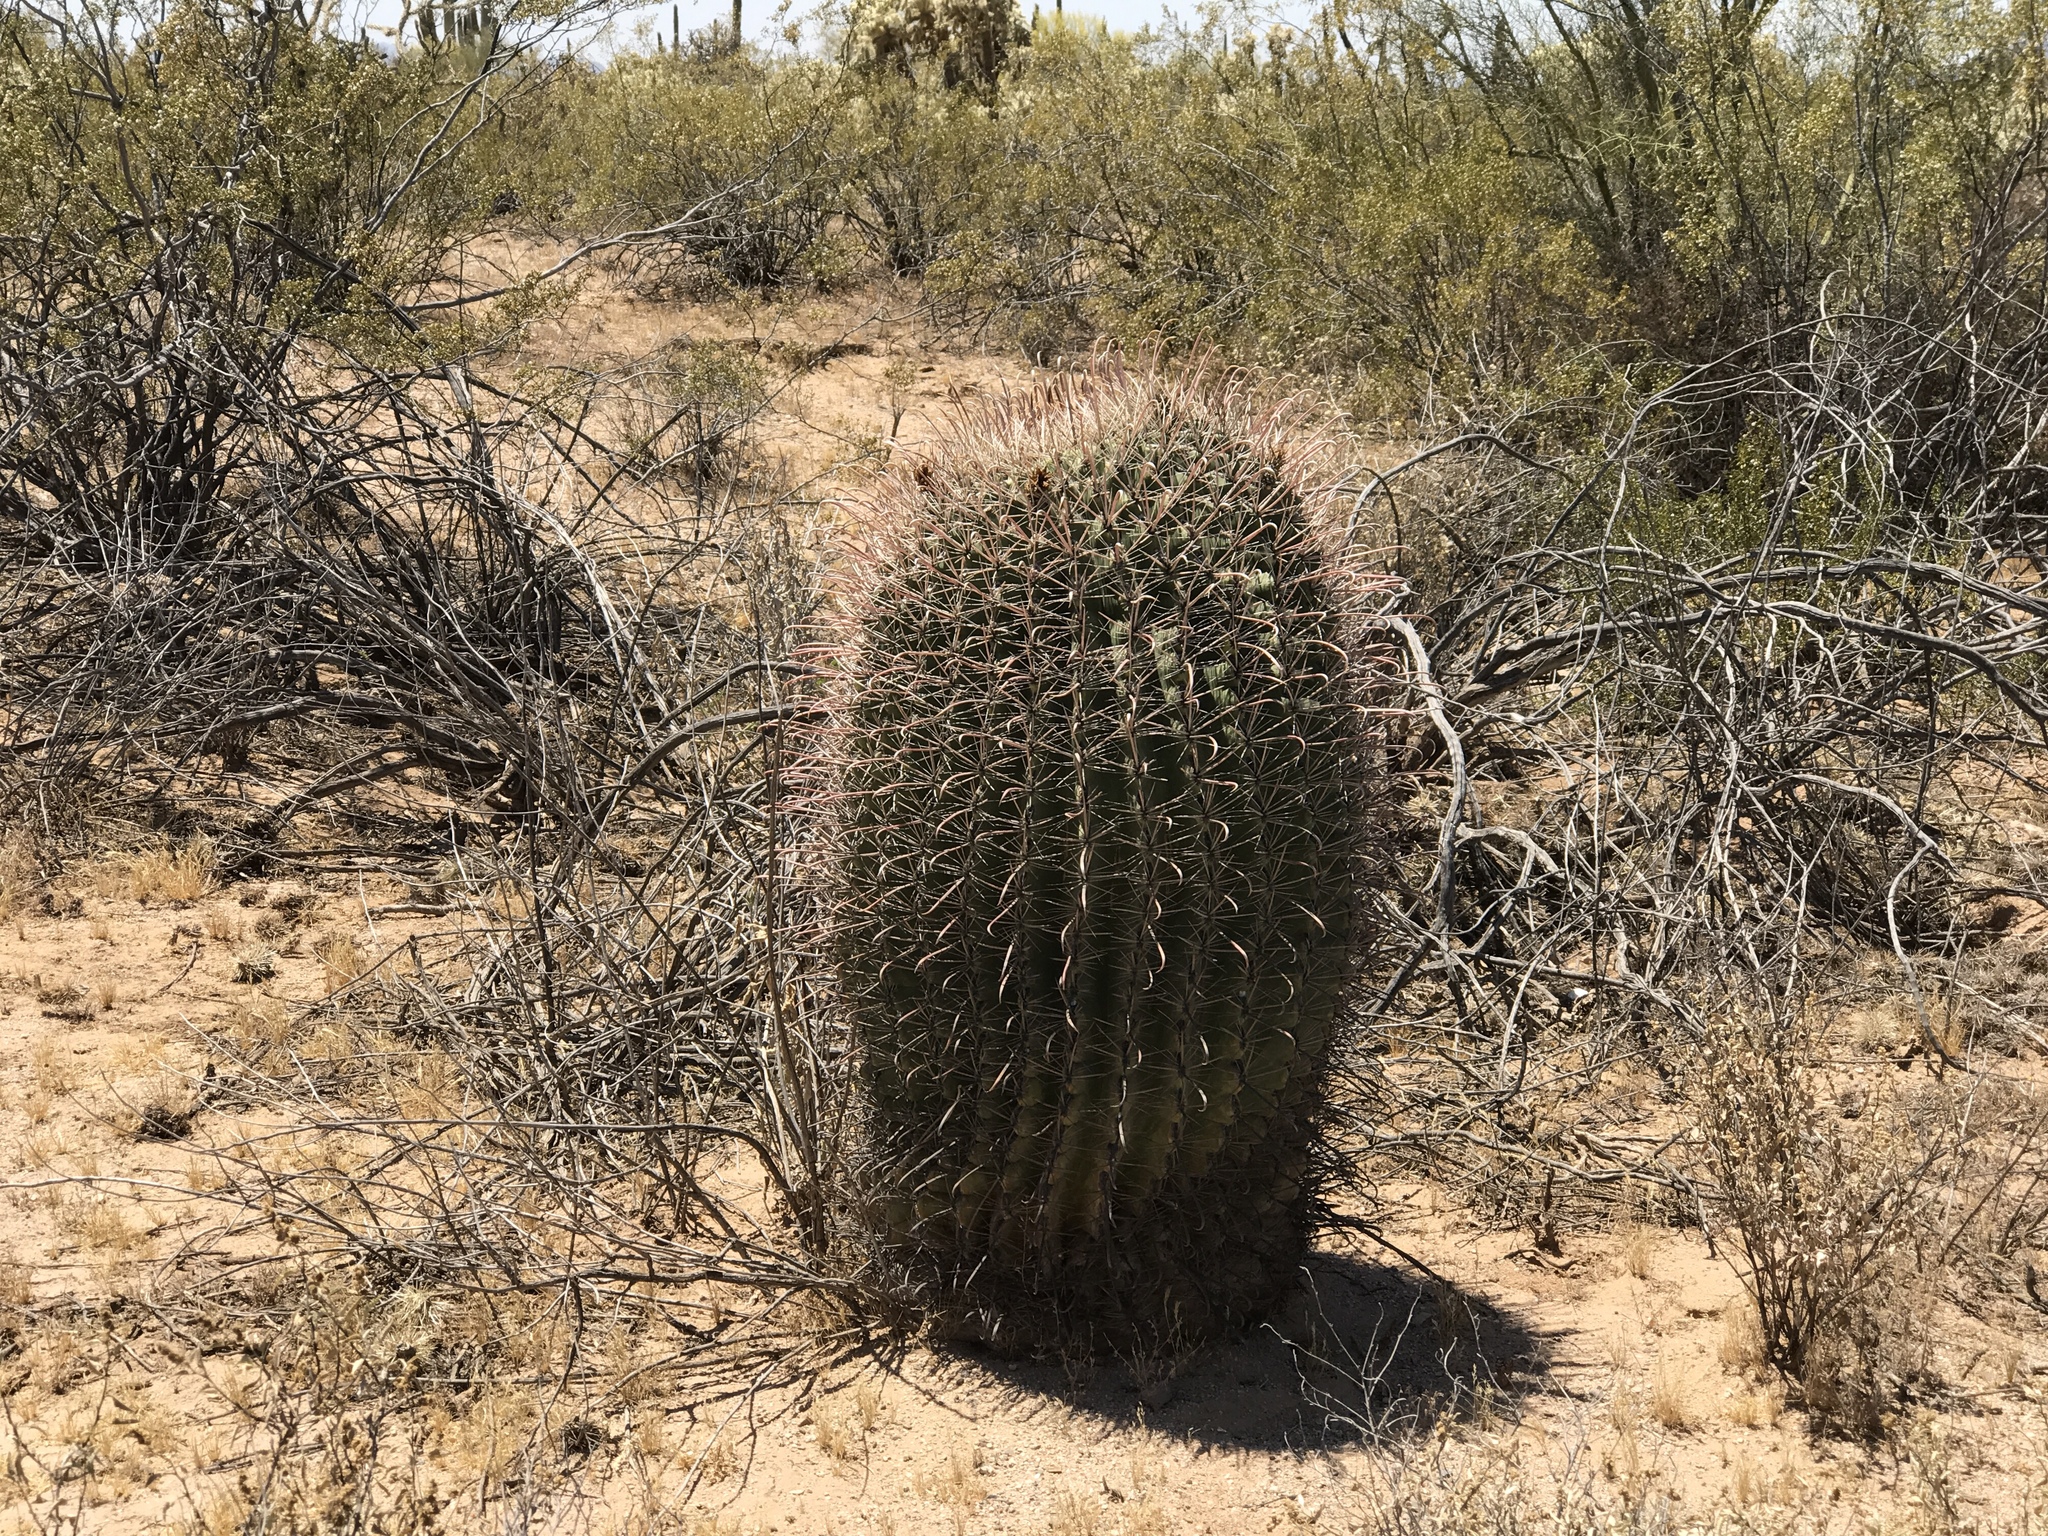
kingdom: Plantae
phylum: Tracheophyta
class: Magnoliopsida
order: Caryophyllales
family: Cactaceae
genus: Ferocactus
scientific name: Ferocactus wislizeni
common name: Candy barrel cactus
